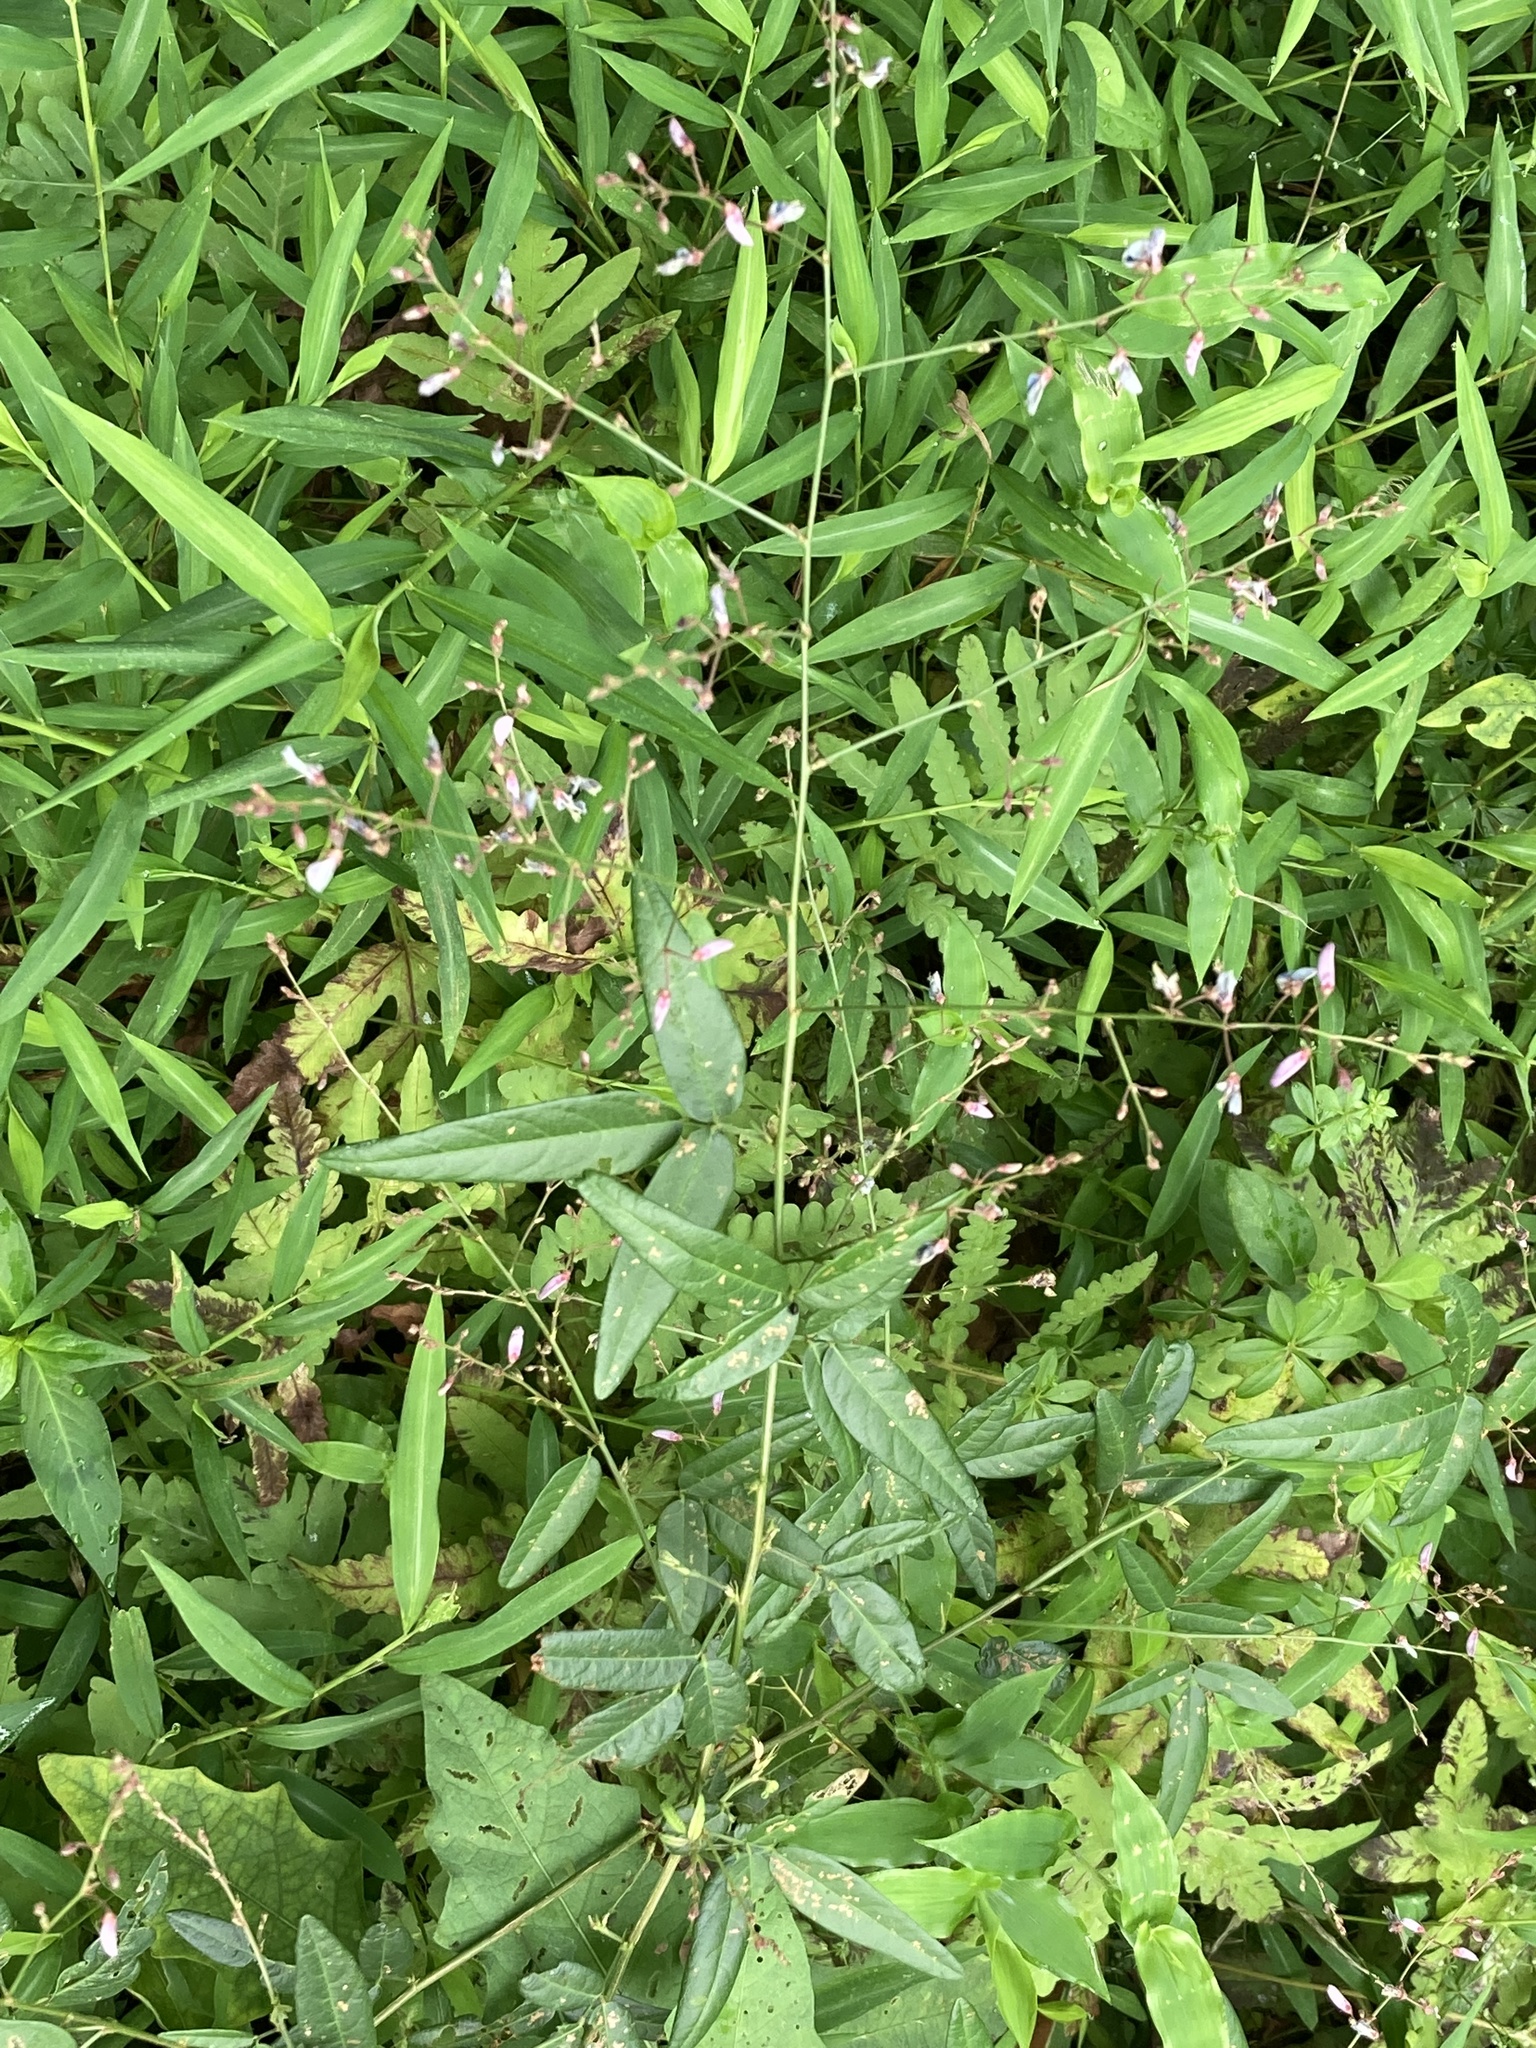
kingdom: Plantae
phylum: Tracheophyta
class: Magnoliopsida
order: Fabales
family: Fabaceae
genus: Desmodium
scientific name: Desmodium paniculatum
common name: Panicled tick-clover
